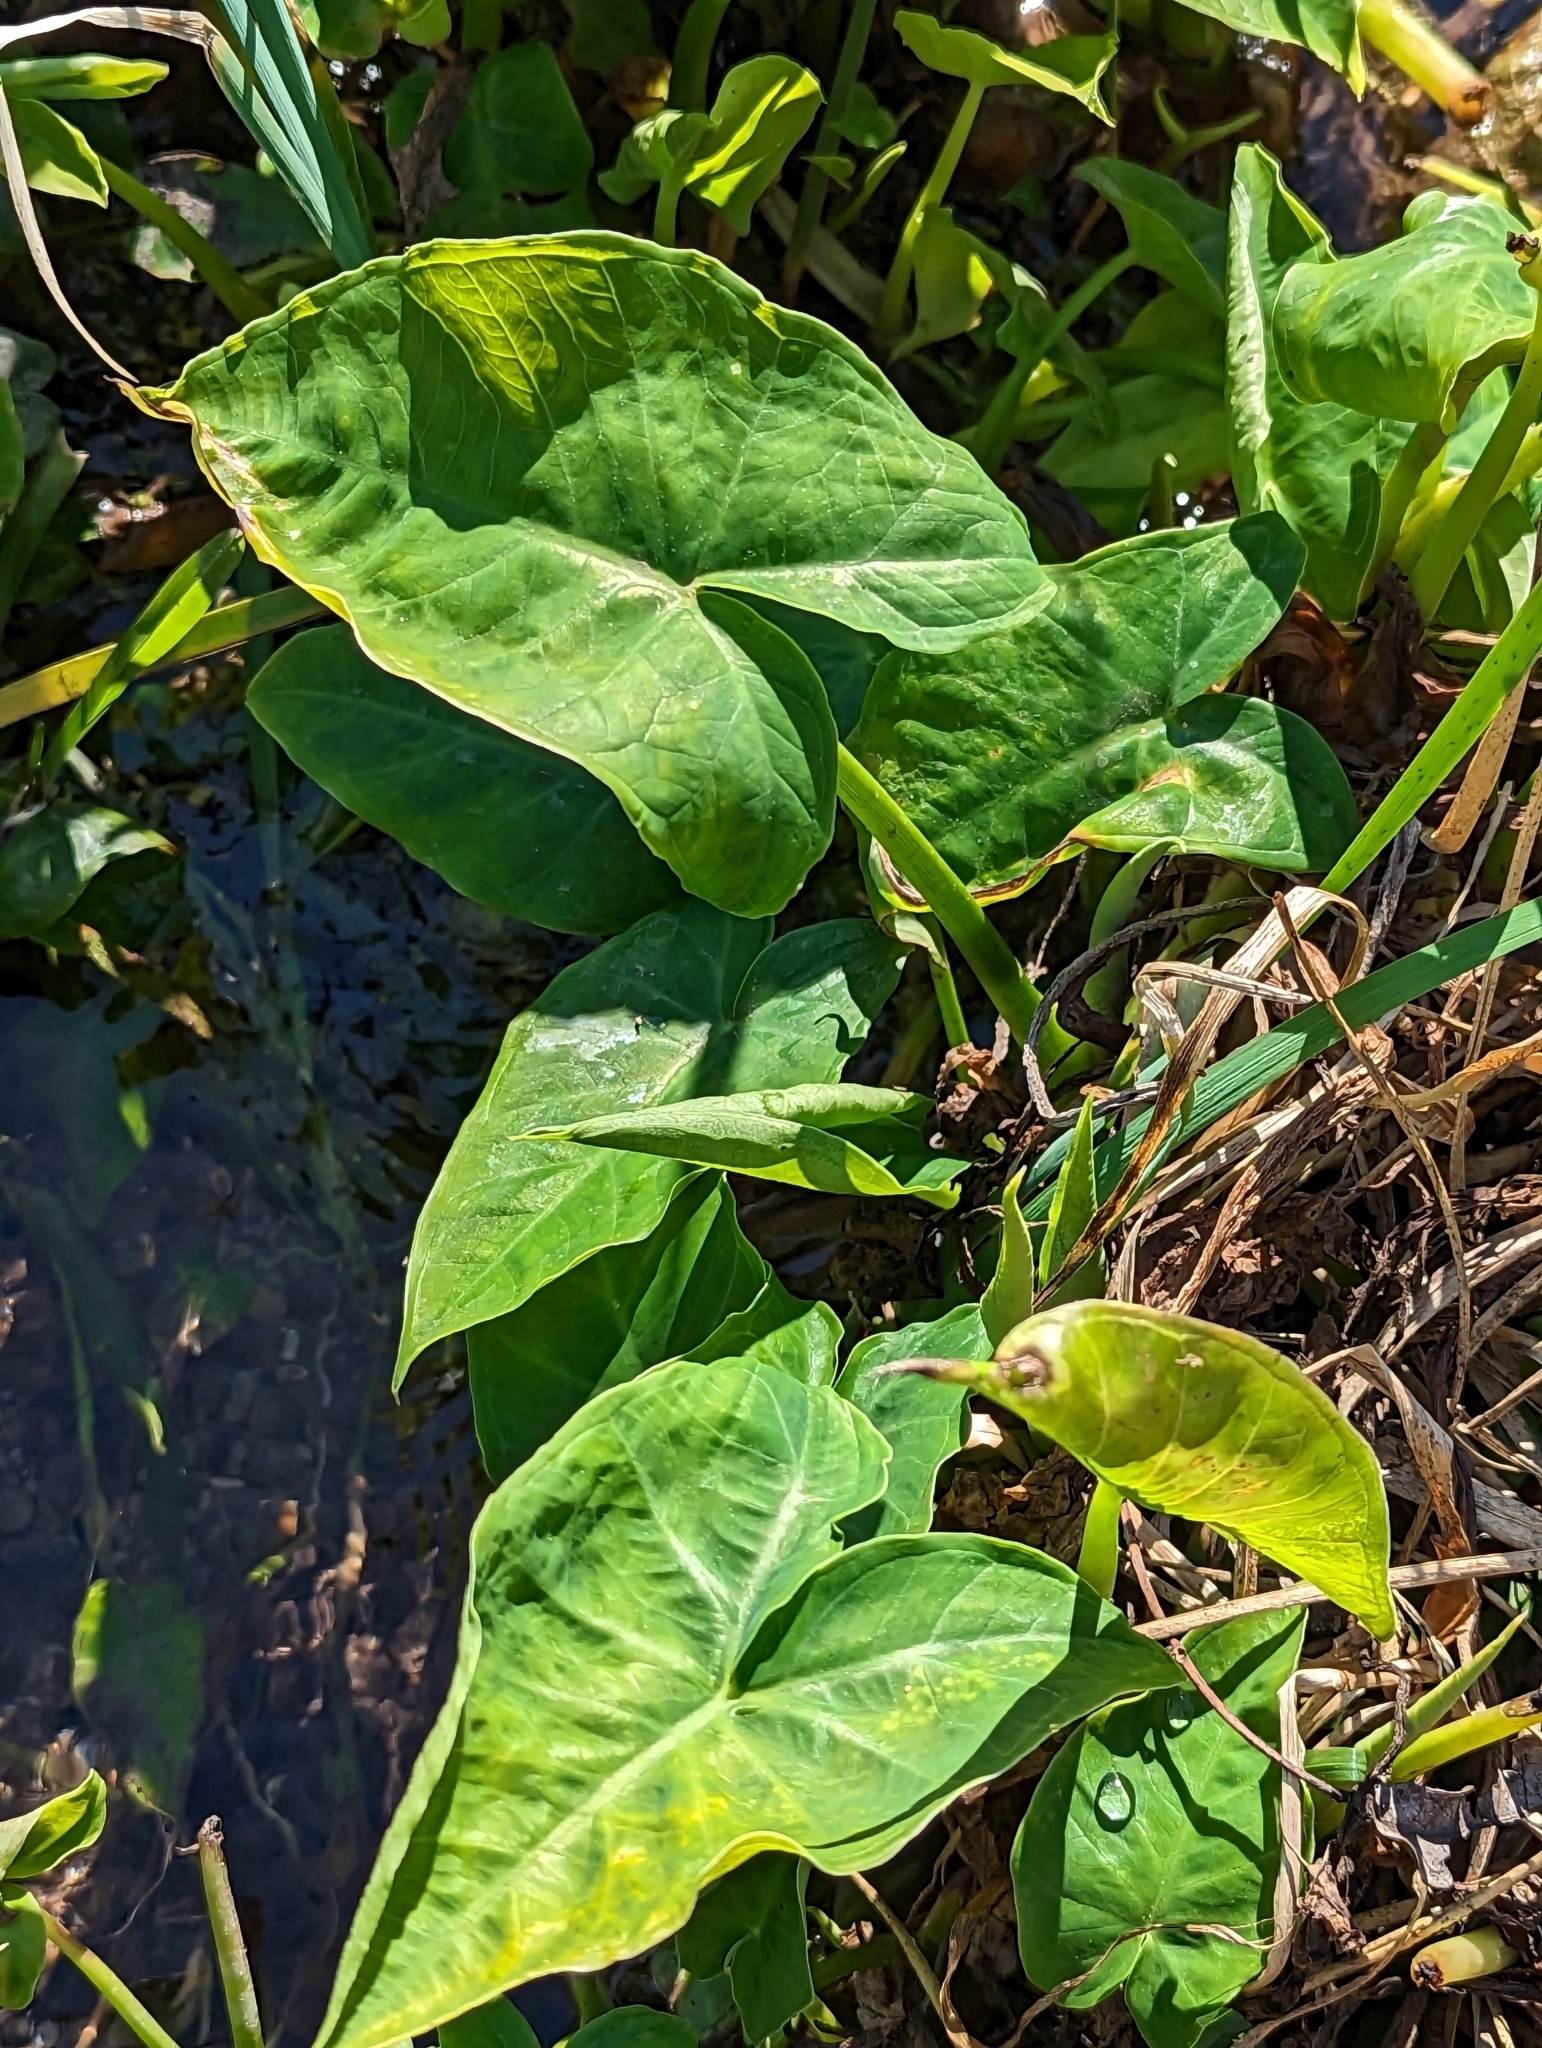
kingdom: Plantae
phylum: Tracheophyta
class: Liliopsida
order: Alismatales
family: Araceae
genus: Xanthosoma
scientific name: Xanthosoma sagittifolium
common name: Arrowleaf elephant's ear
